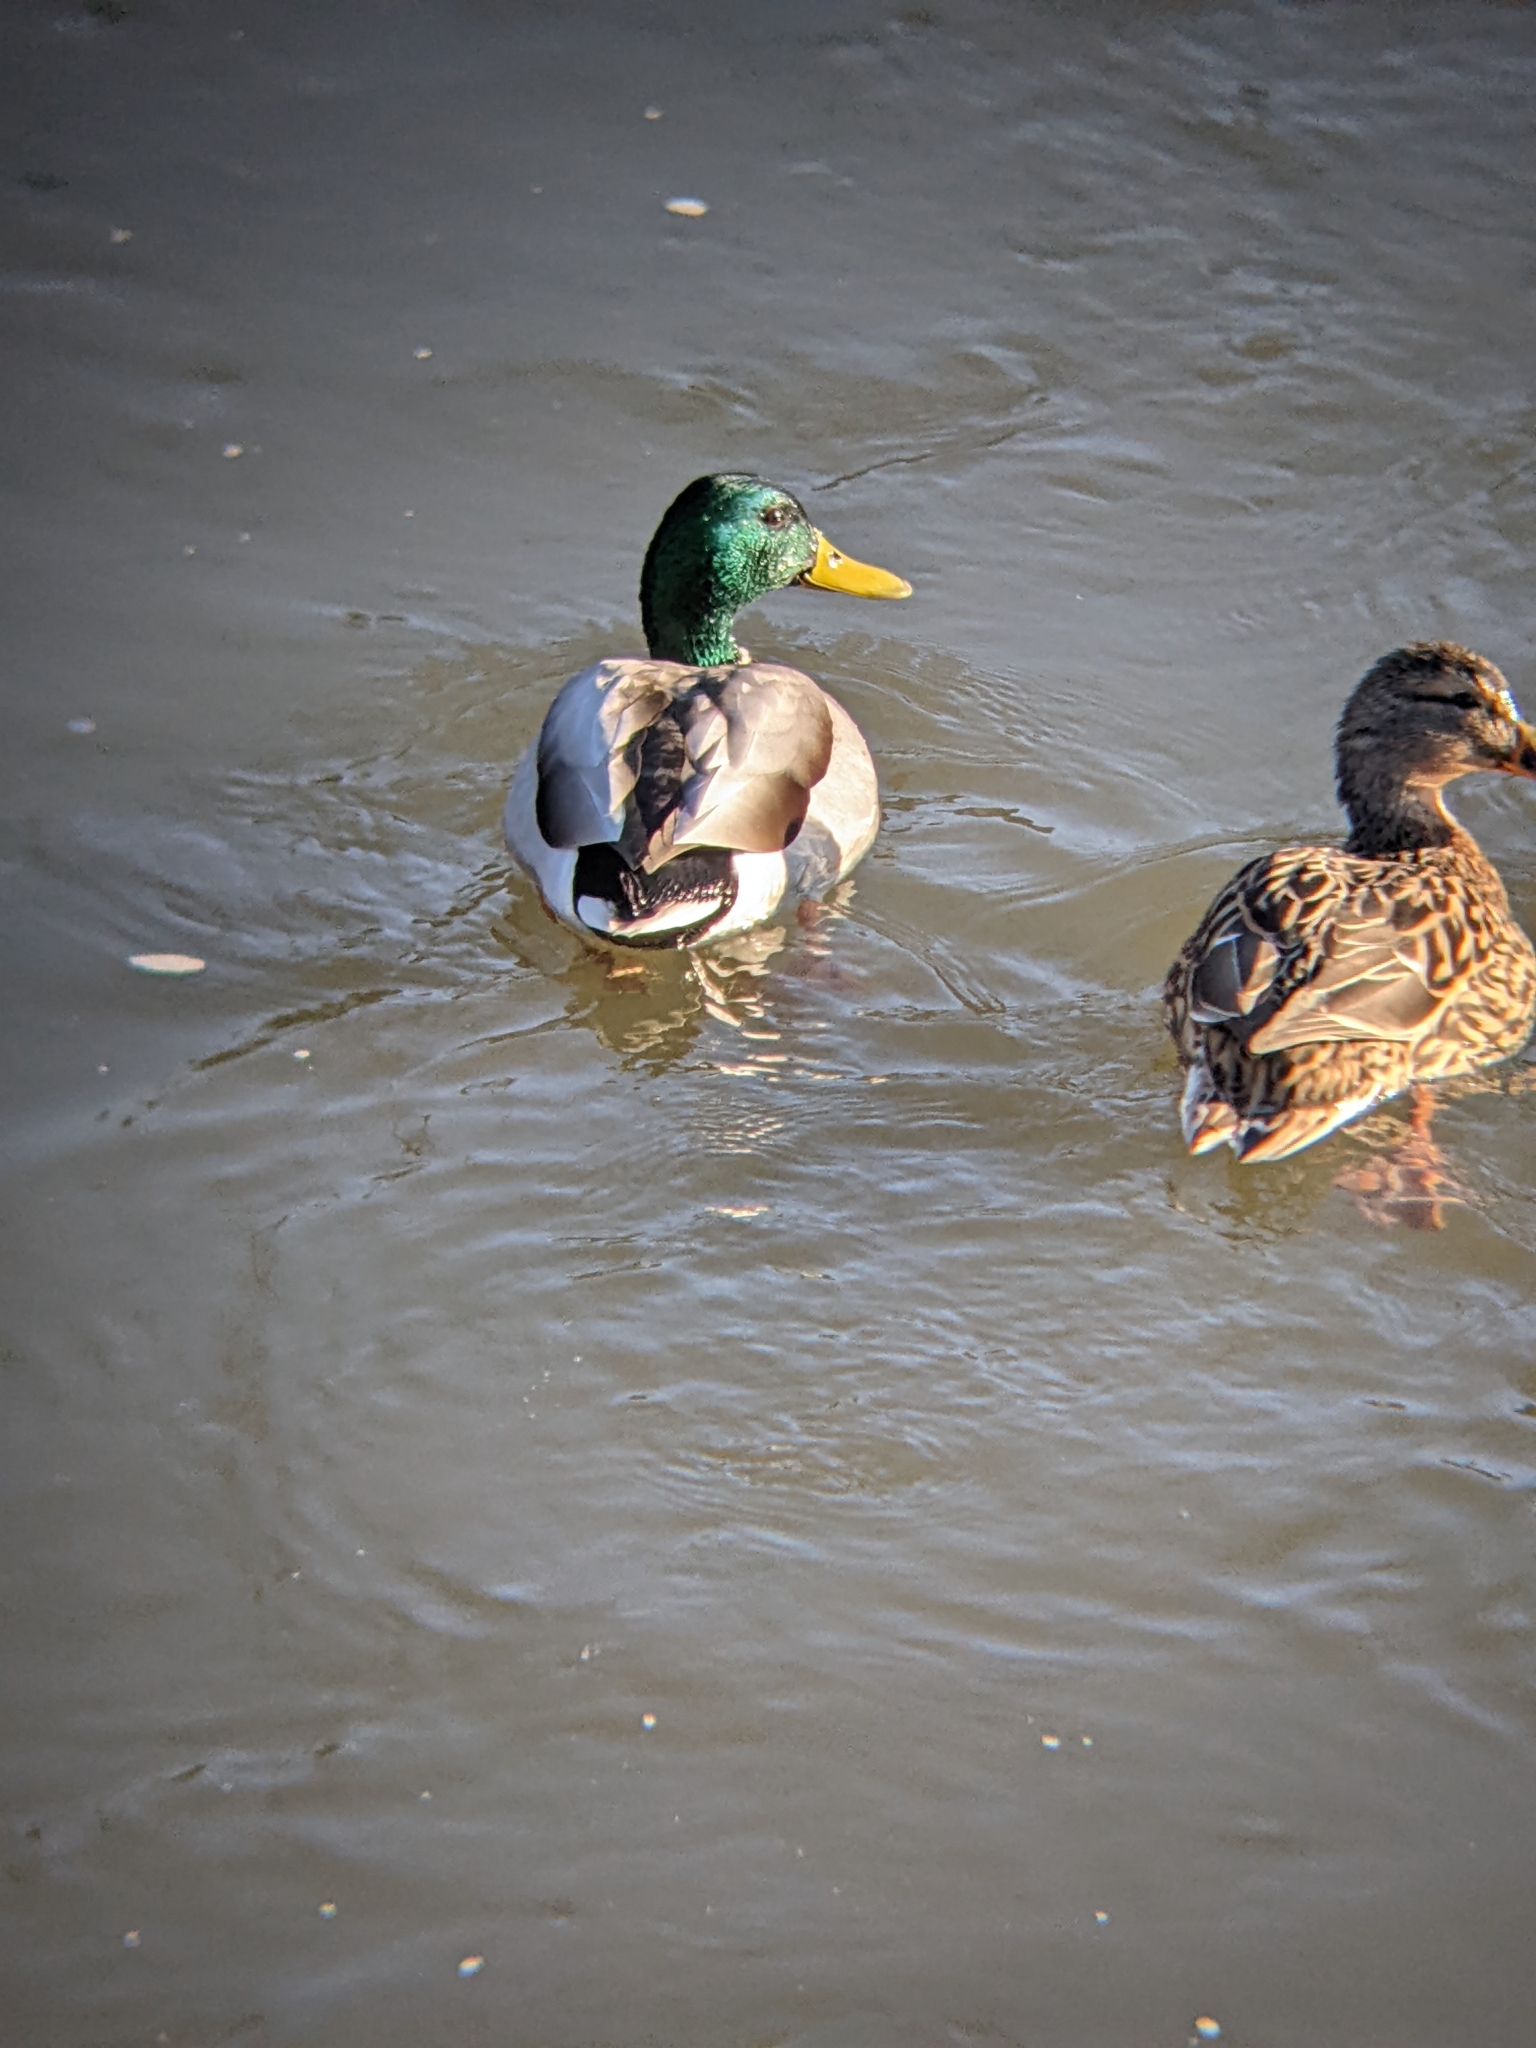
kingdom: Animalia
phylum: Chordata
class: Aves
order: Anseriformes
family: Anatidae
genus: Anas
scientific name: Anas platyrhynchos
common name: Mallard
